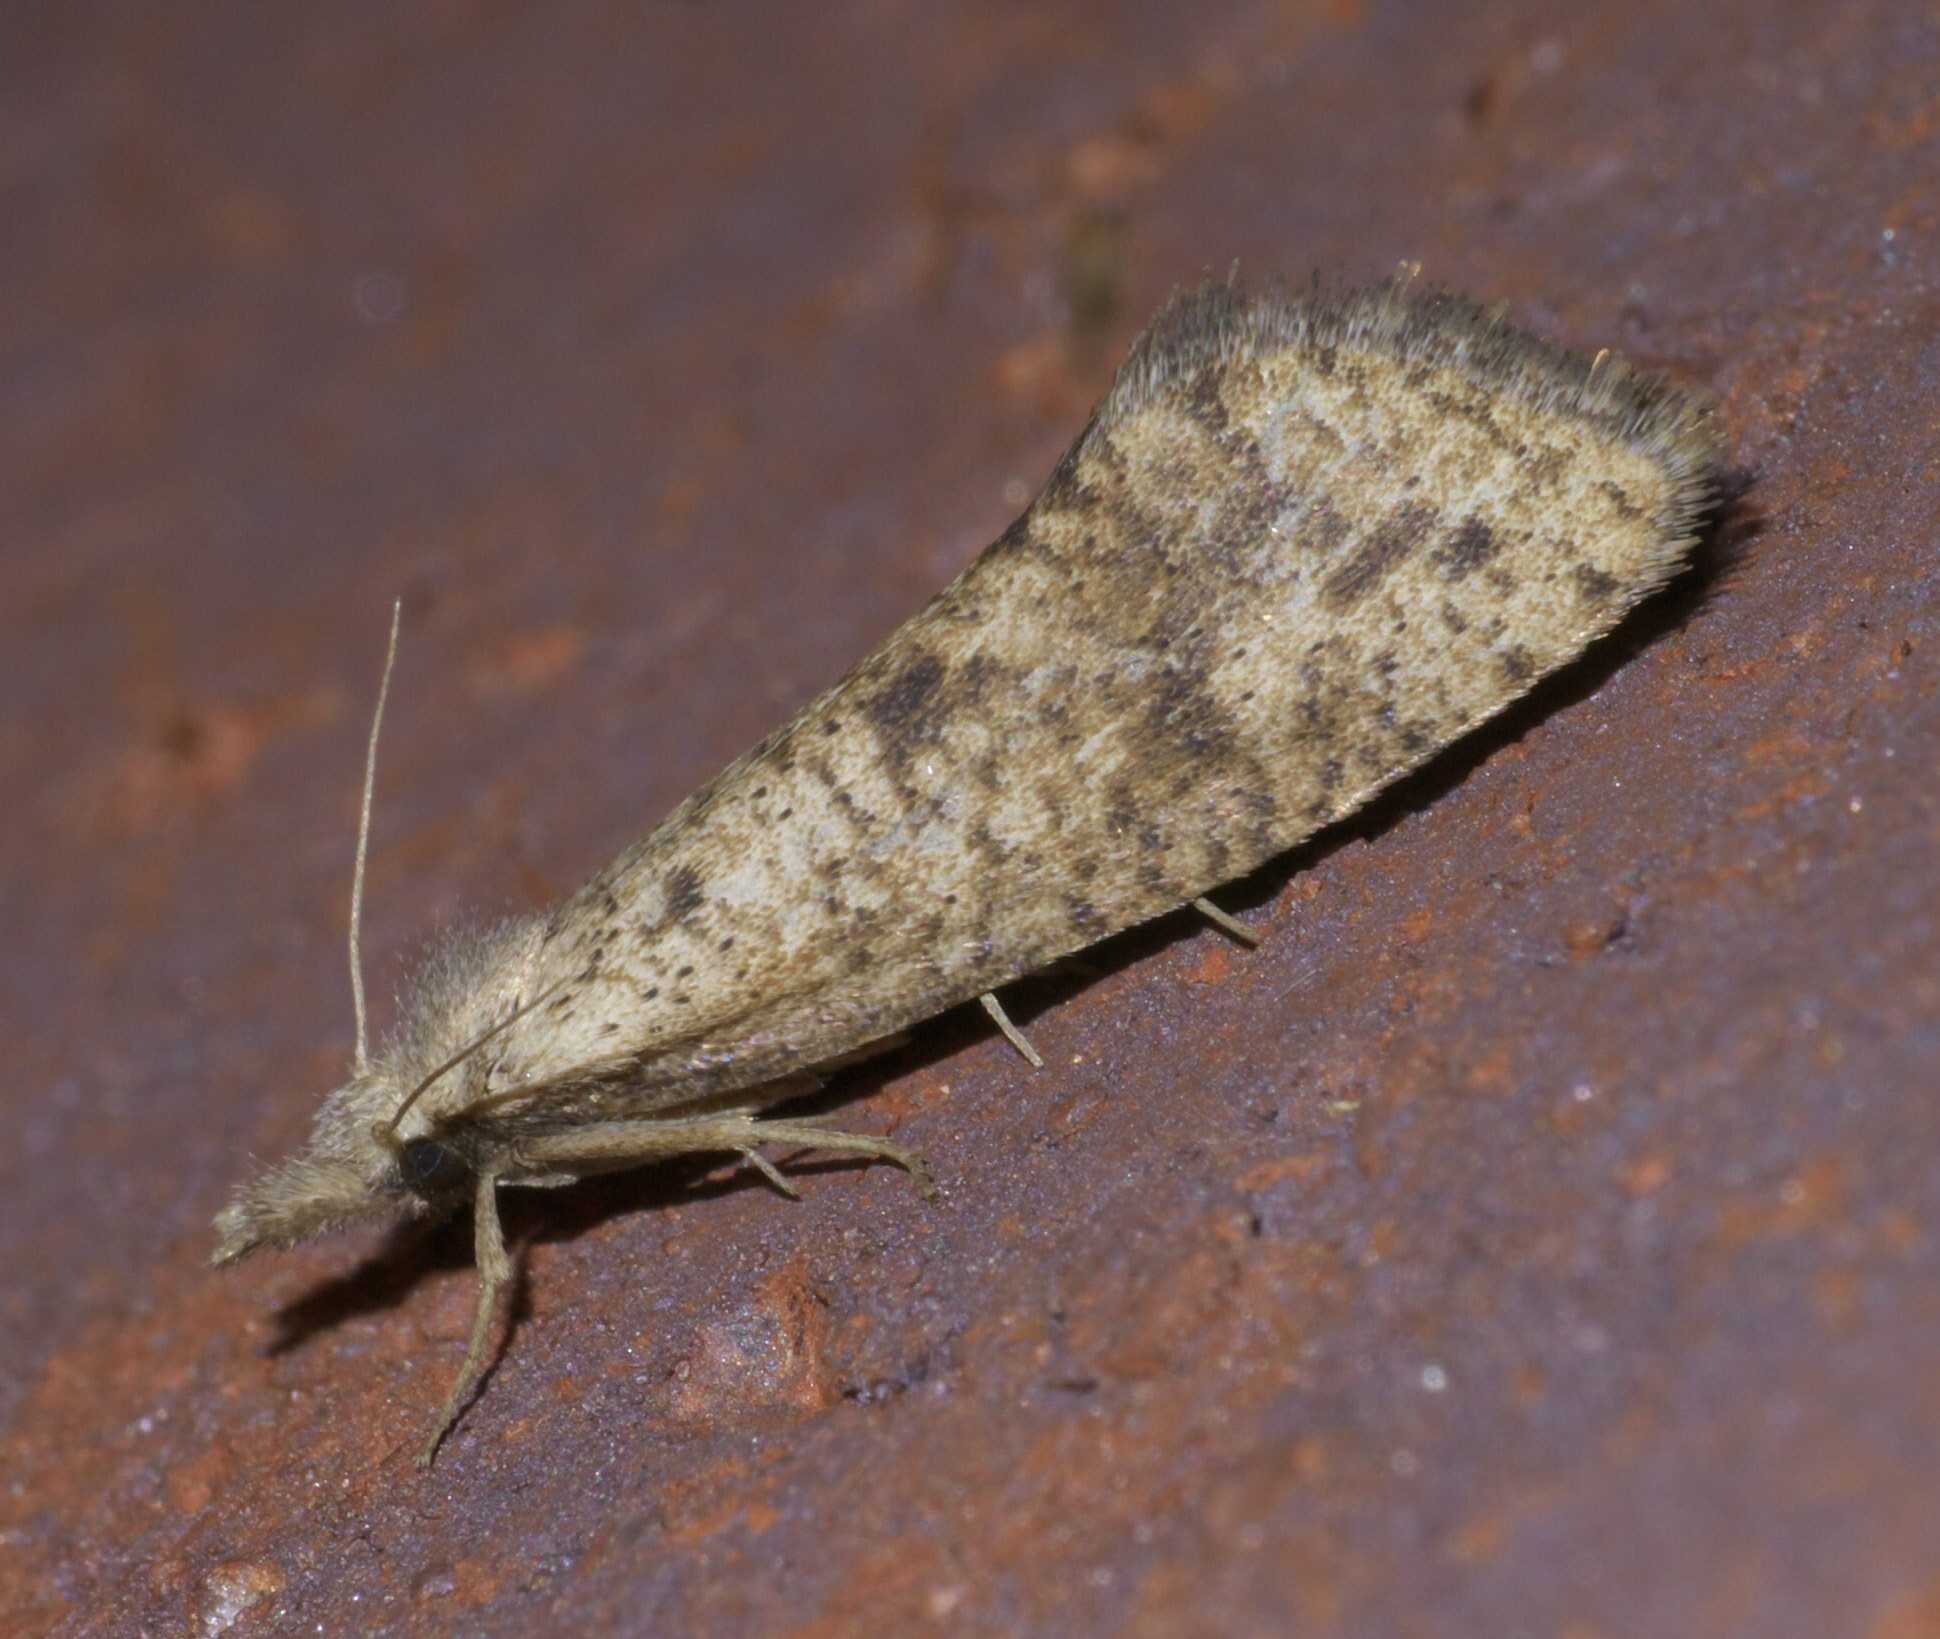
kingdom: Animalia
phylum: Arthropoda
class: Insecta
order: Lepidoptera
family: Tineidae
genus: Acrolophus
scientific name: Acrolophus mortipennella
